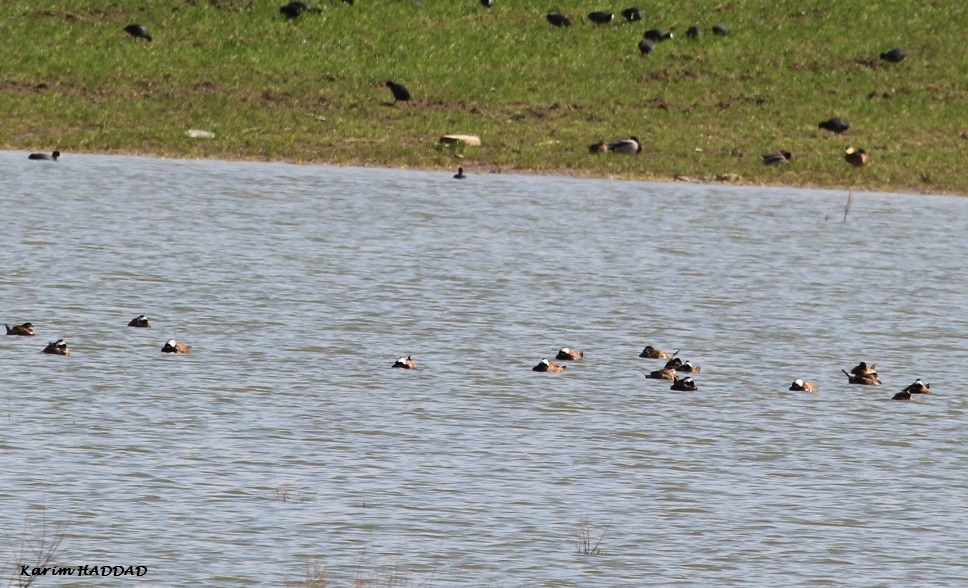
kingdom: Animalia
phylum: Chordata
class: Aves
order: Anseriformes
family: Anatidae
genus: Oxyura
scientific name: Oxyura leucocephala
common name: White-headed duck
